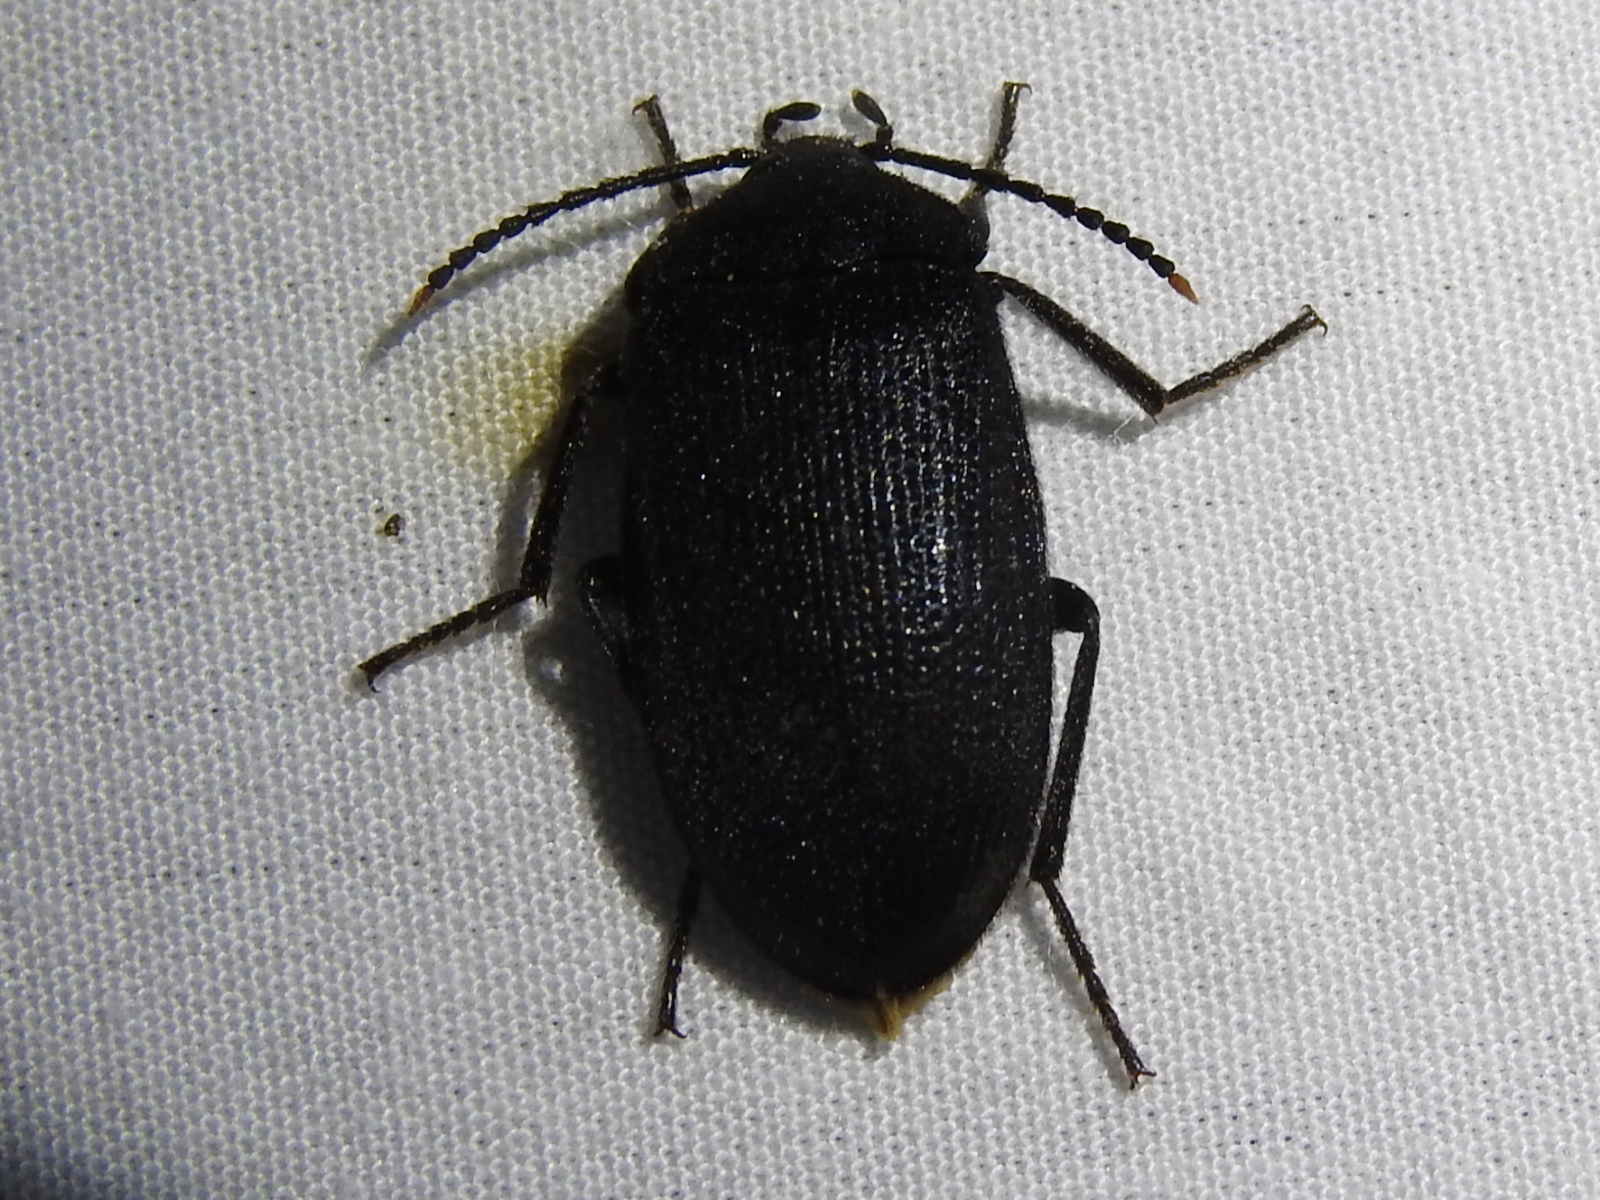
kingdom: Animalia
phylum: Arthropoda
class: Insecta
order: Coleoptera
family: Tetratomidae
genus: Penthe
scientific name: Penthe pimelia
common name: Velvety bark beetle
